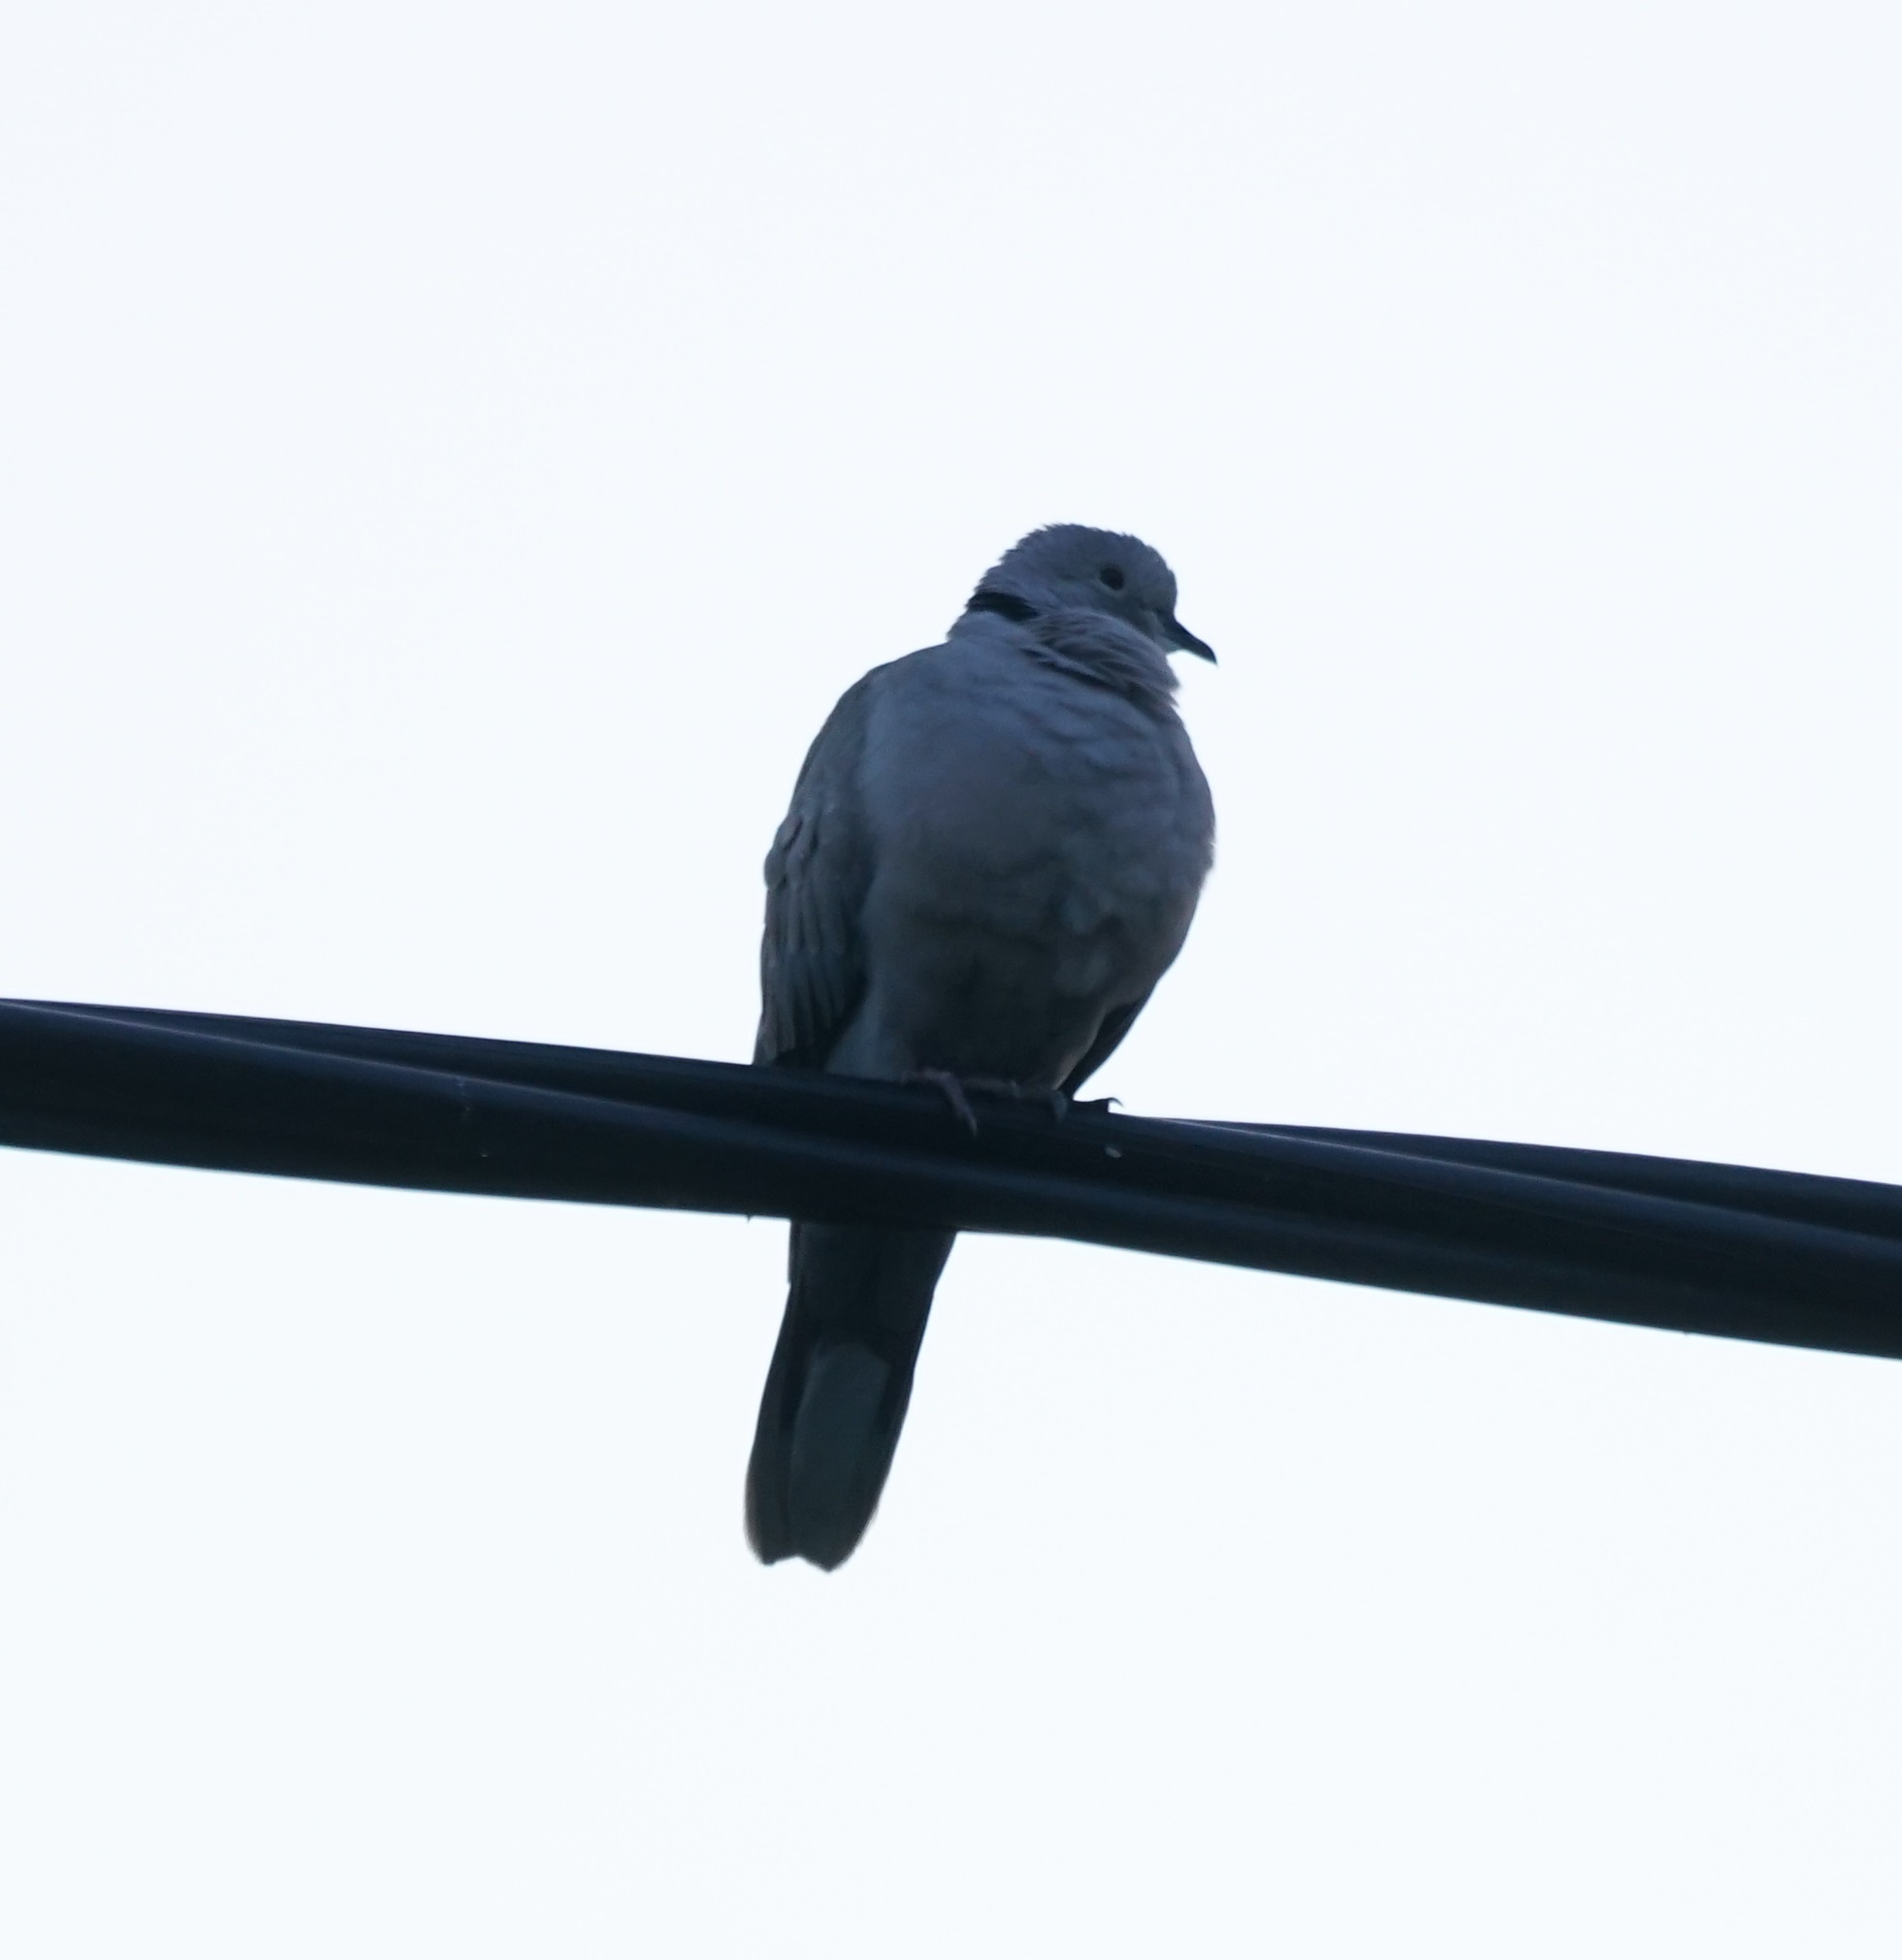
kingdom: Animalia
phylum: Chordata
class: Aves
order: Columbiformes
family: Columbidae
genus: Streptopelia
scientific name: Streptopelia decaocto
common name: Eurasian collared dove
